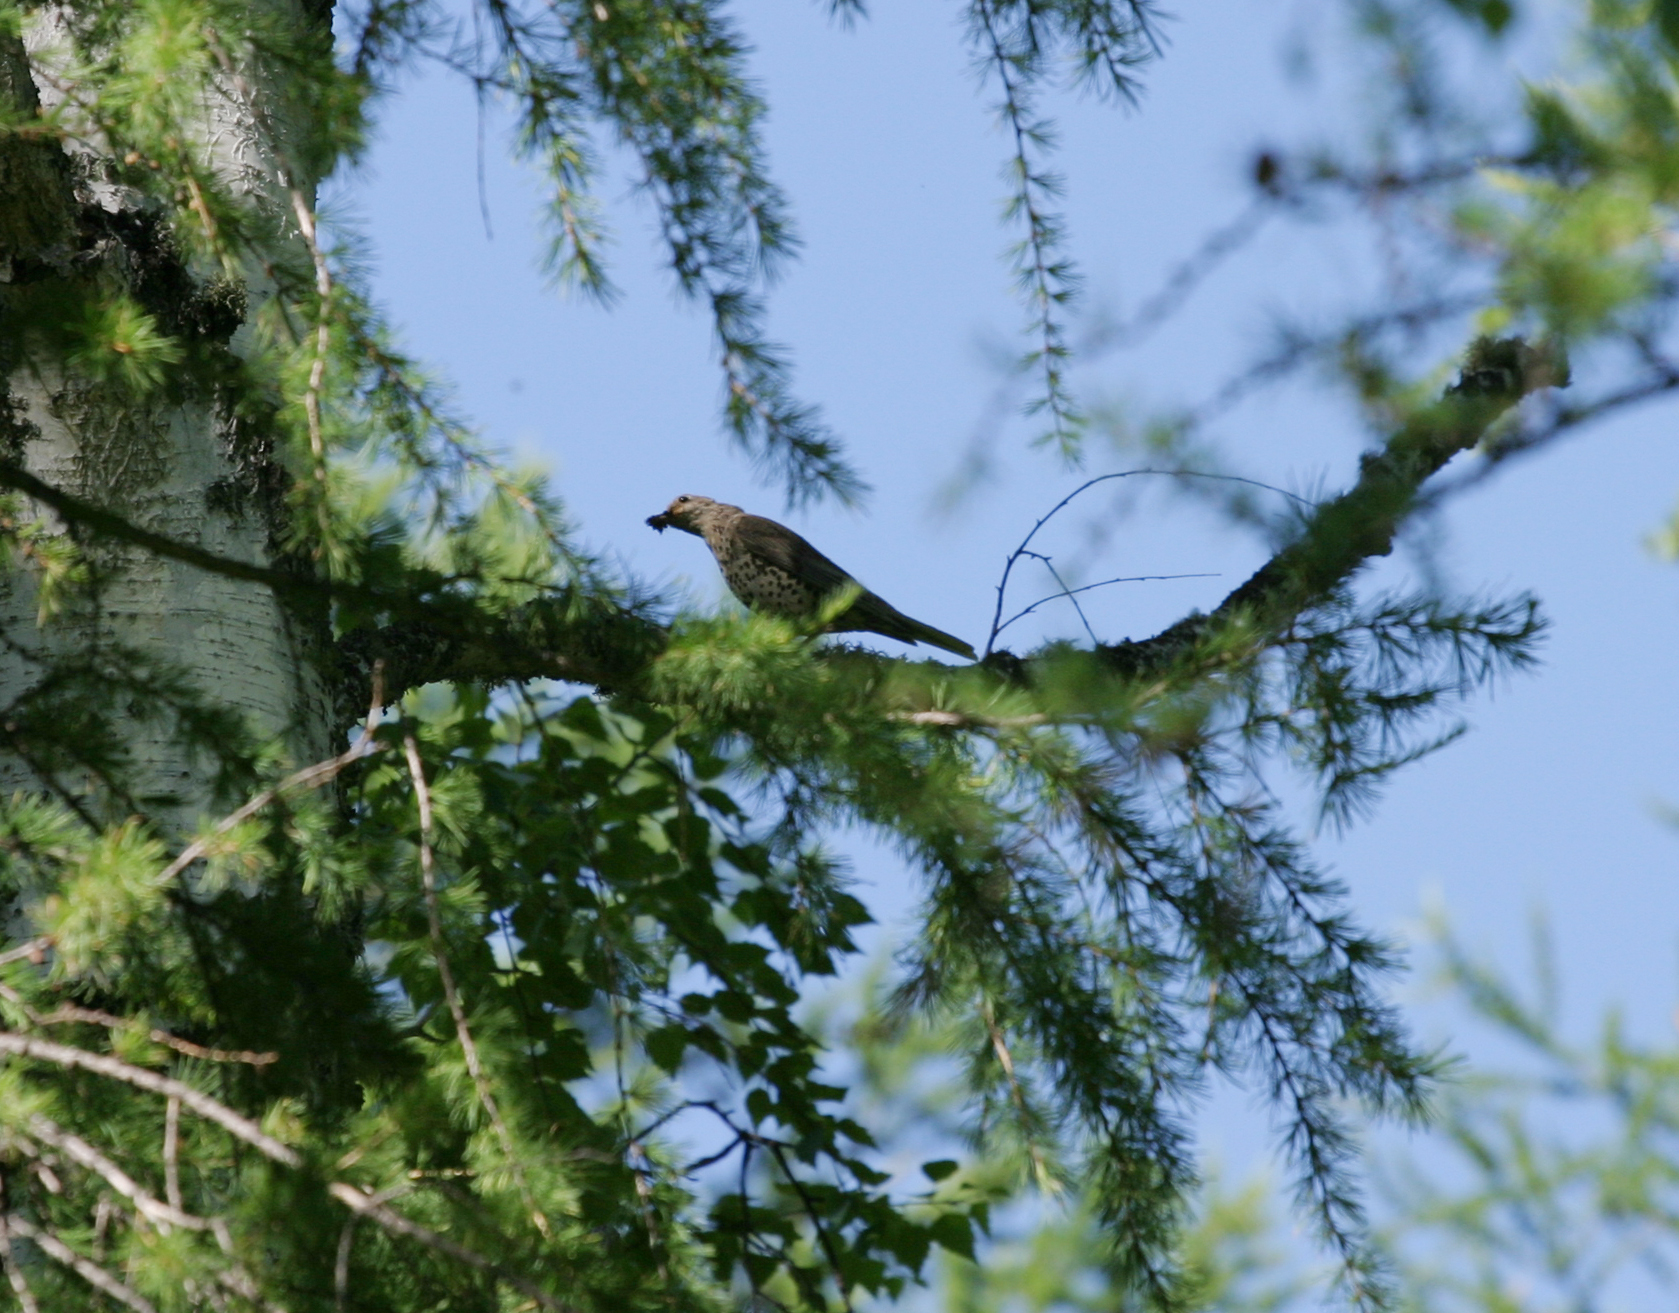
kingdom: Animalia
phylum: Chordata
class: Aves
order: Passeriformes
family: Turdidae
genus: Turdus
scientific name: Turdus viscivorus
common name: Mistle thrush
